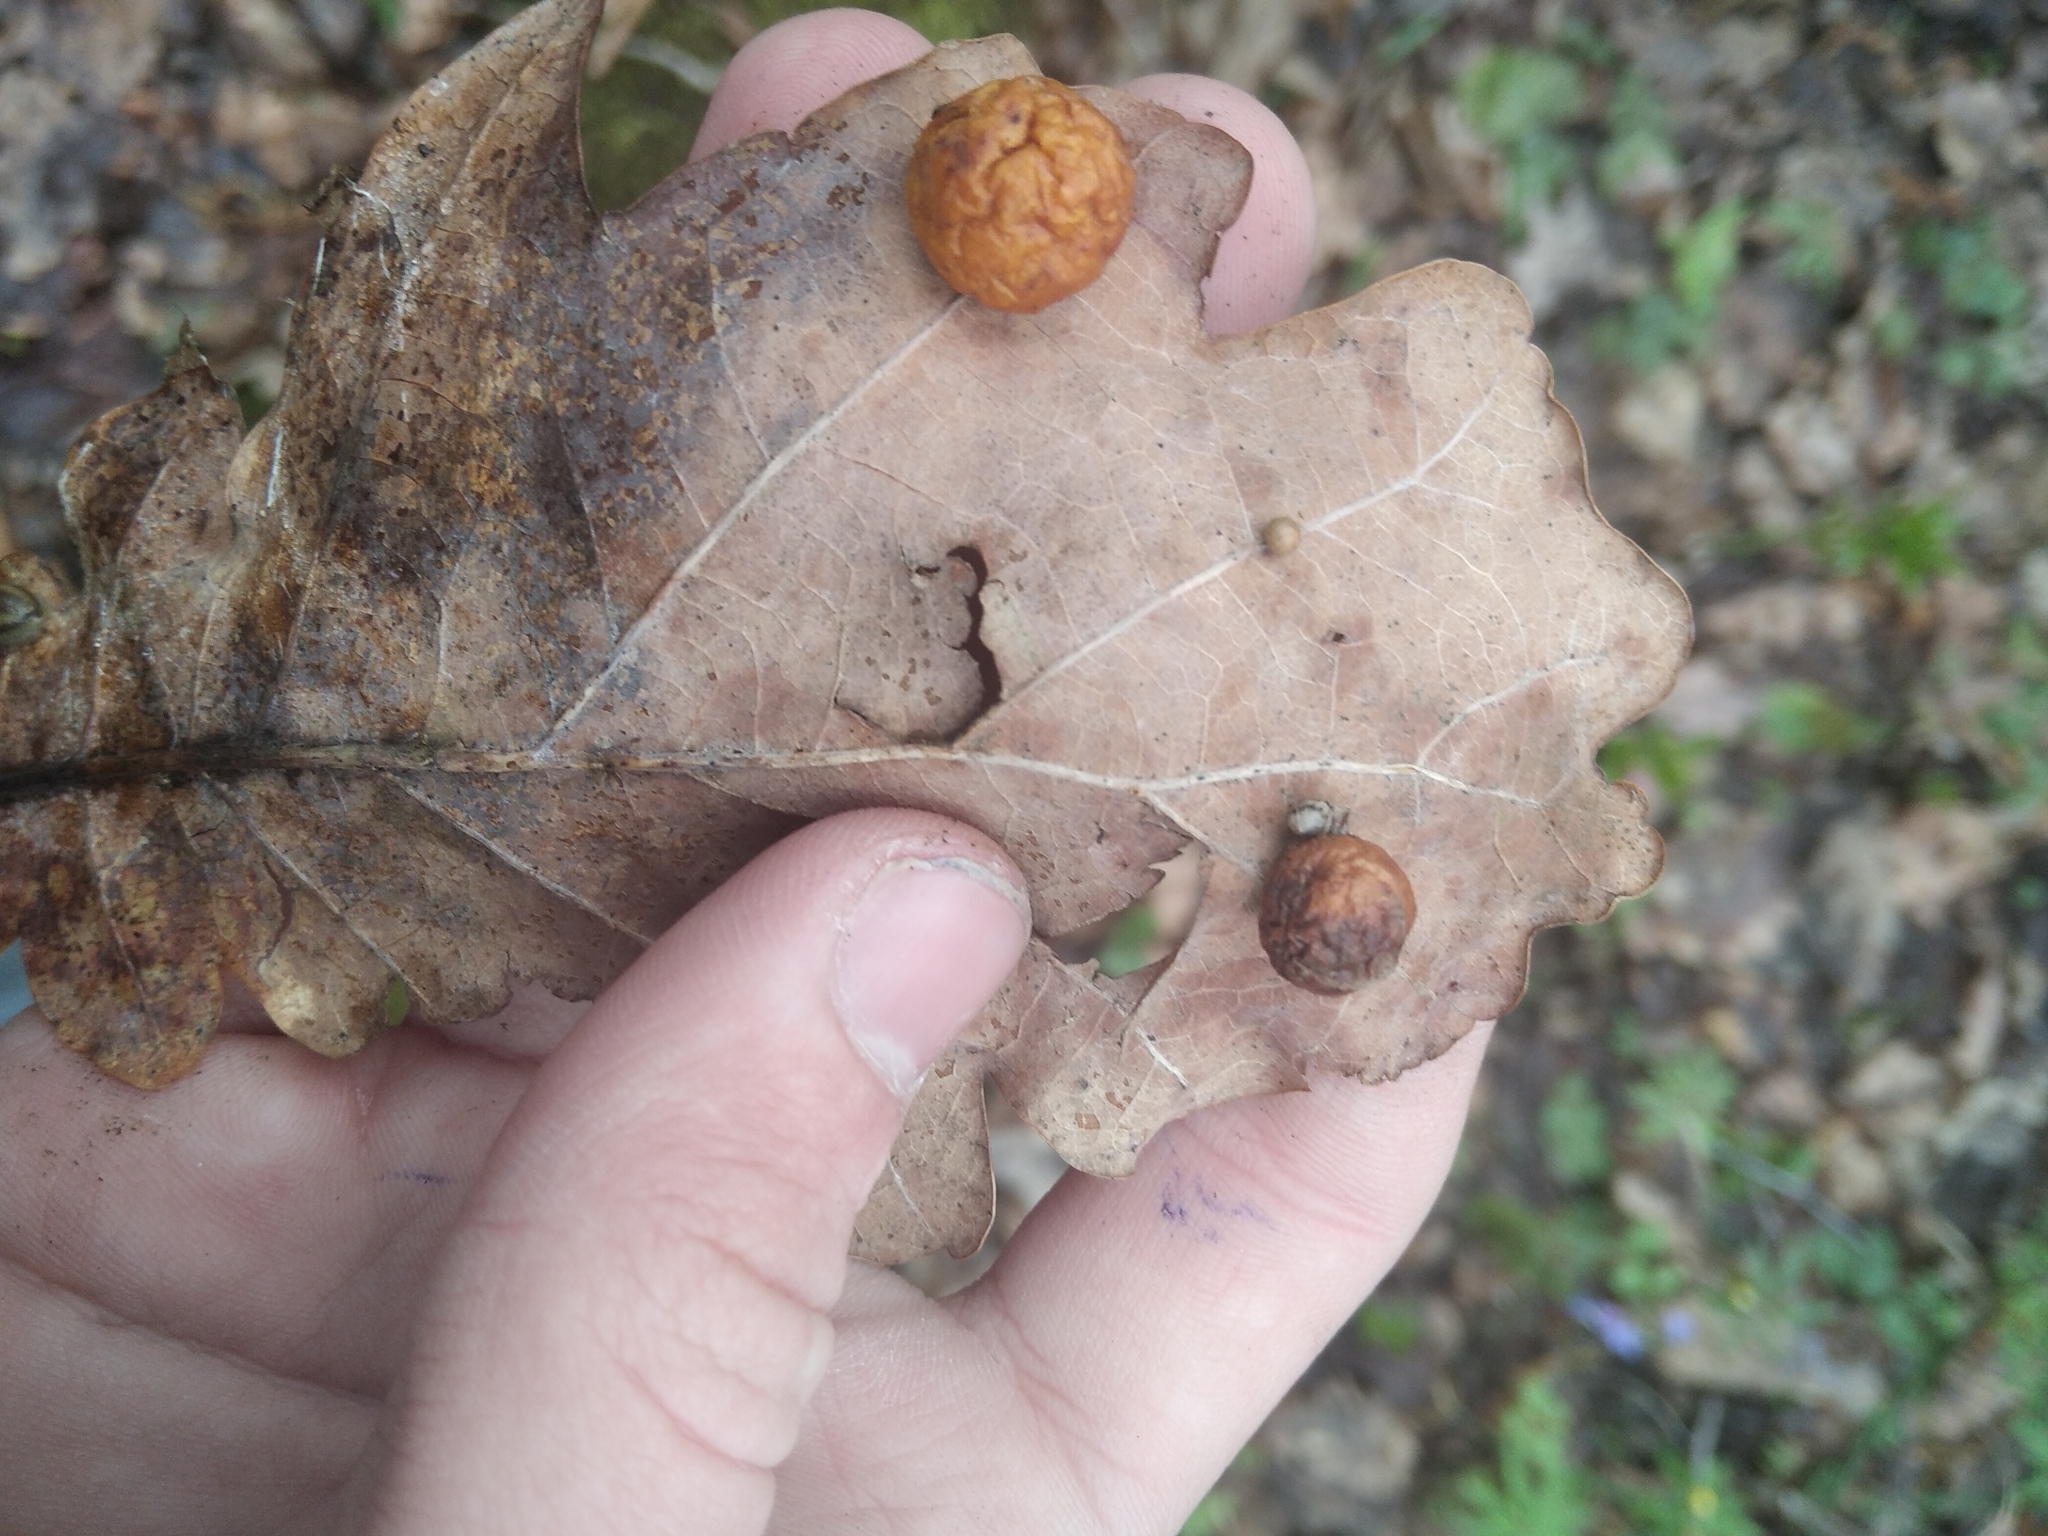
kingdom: Animalia
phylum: Arthropoda
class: Insecta
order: Hymenoptera
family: Cynipidae
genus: Cynips
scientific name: Cynips quercusfolii
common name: Cherry gall
